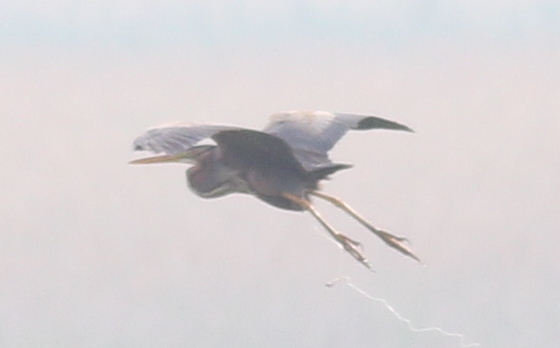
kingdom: Animalia
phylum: Chordata
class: Aves
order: Pelecaniformes
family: Ardeidae
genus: Ardea
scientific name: Ardea purpurea
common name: Purple heron
